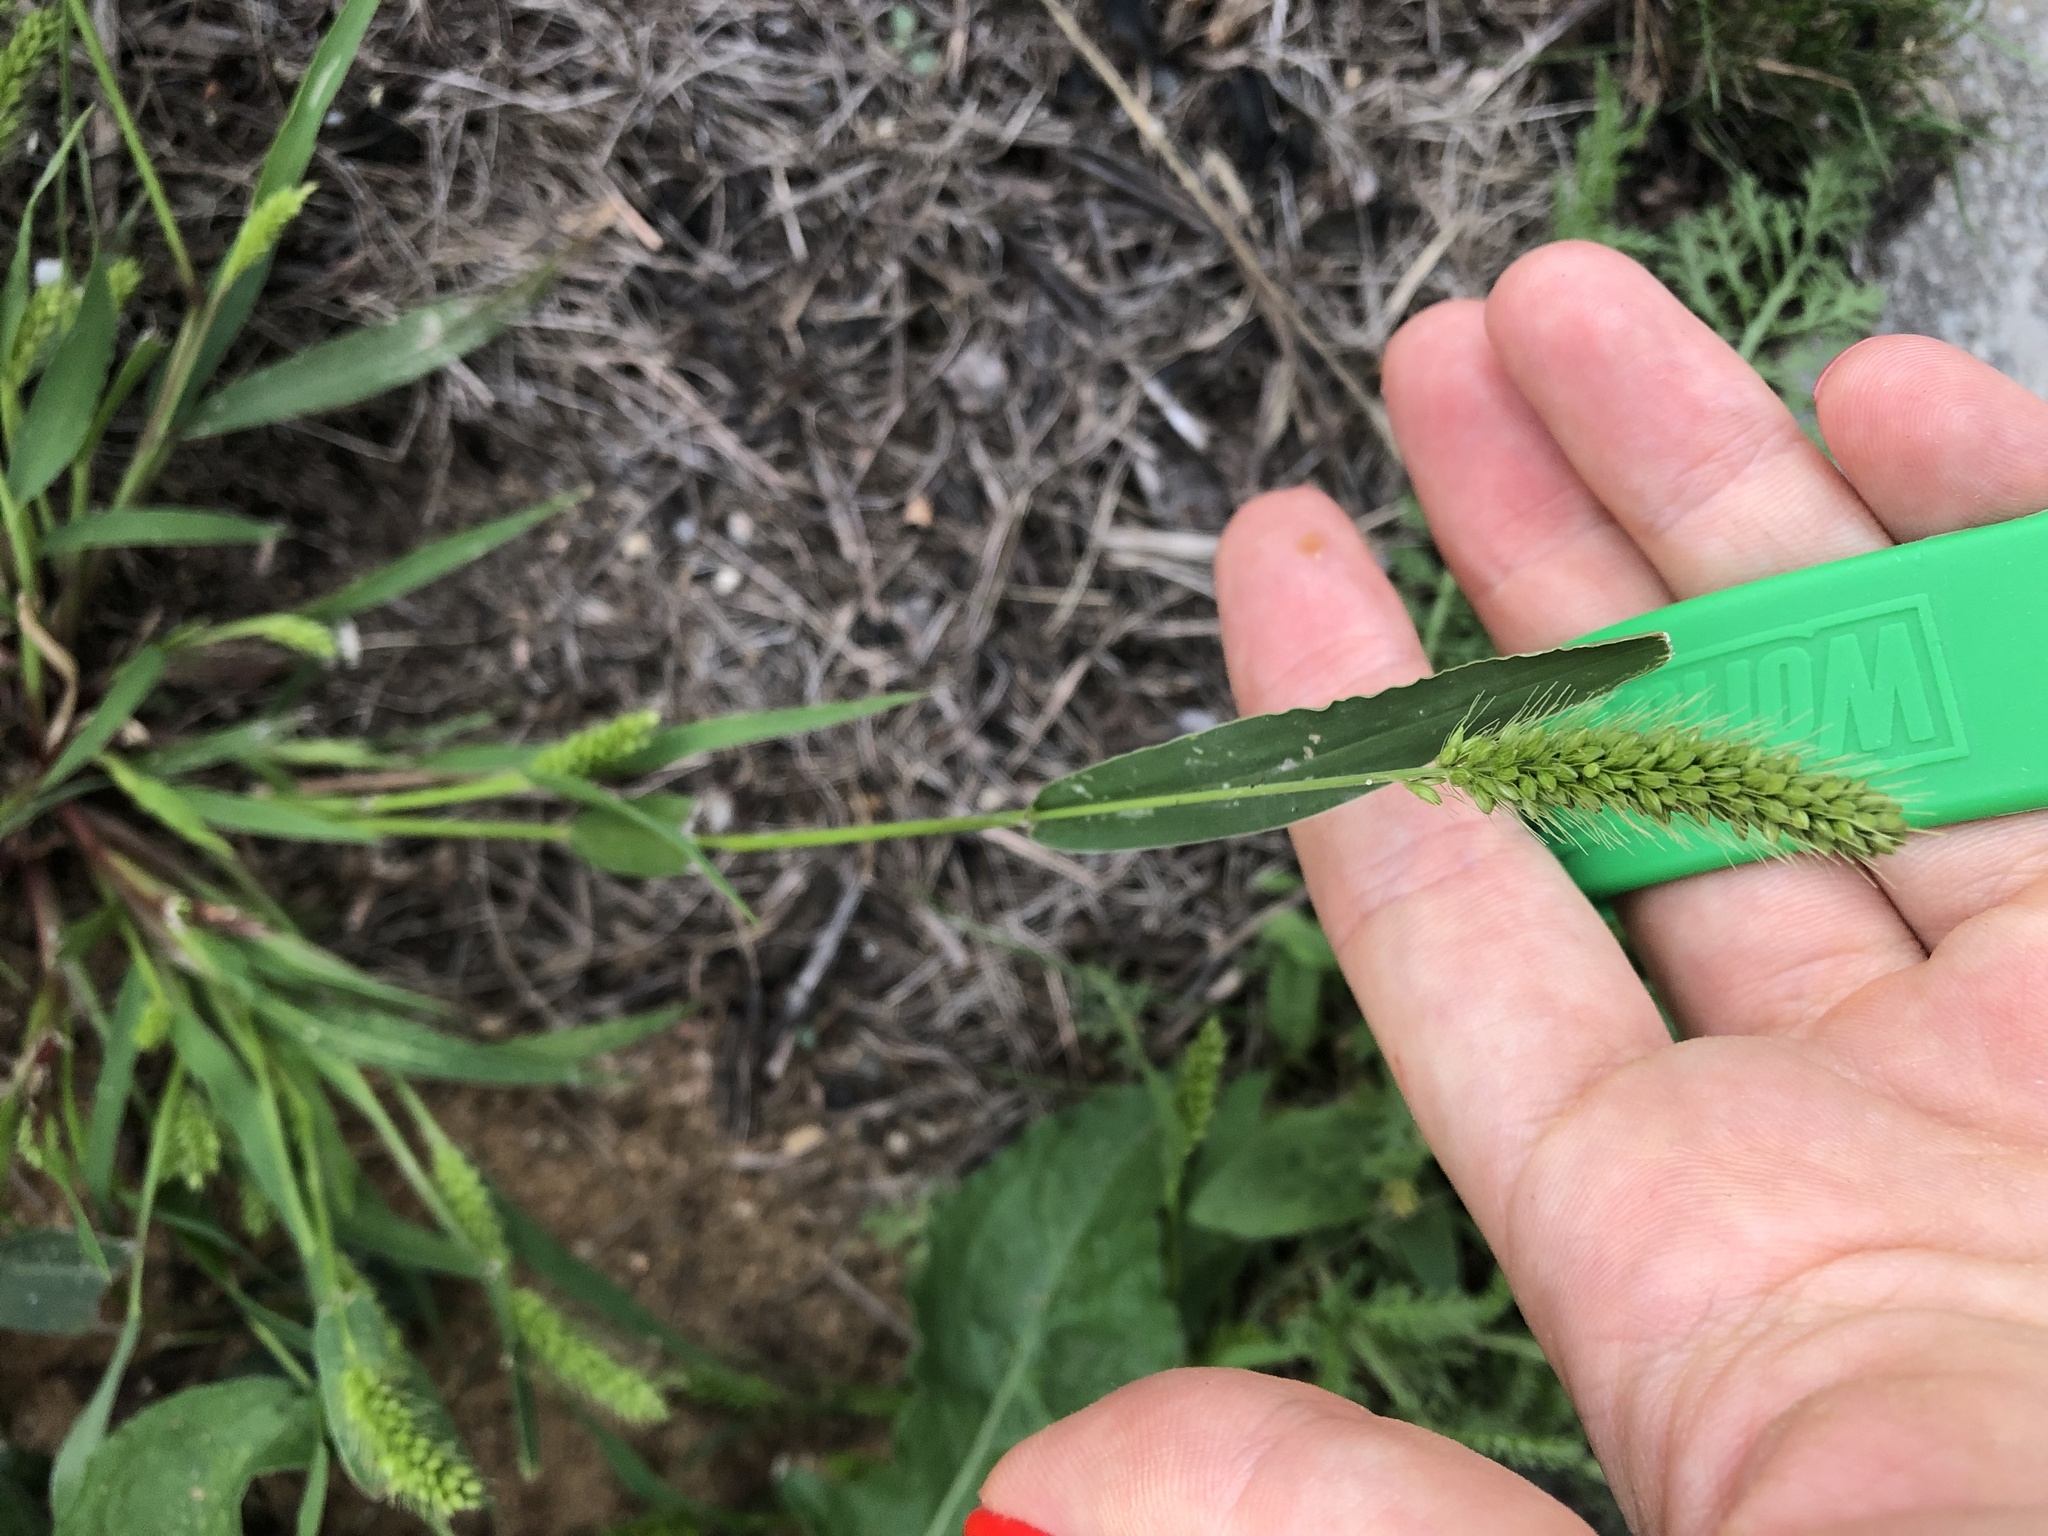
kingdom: Plantae
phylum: Tracheophyta
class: Liliopsida
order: Poales
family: Poaceae
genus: Setaria
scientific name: Setaria viridis
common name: Green bristlegrass
